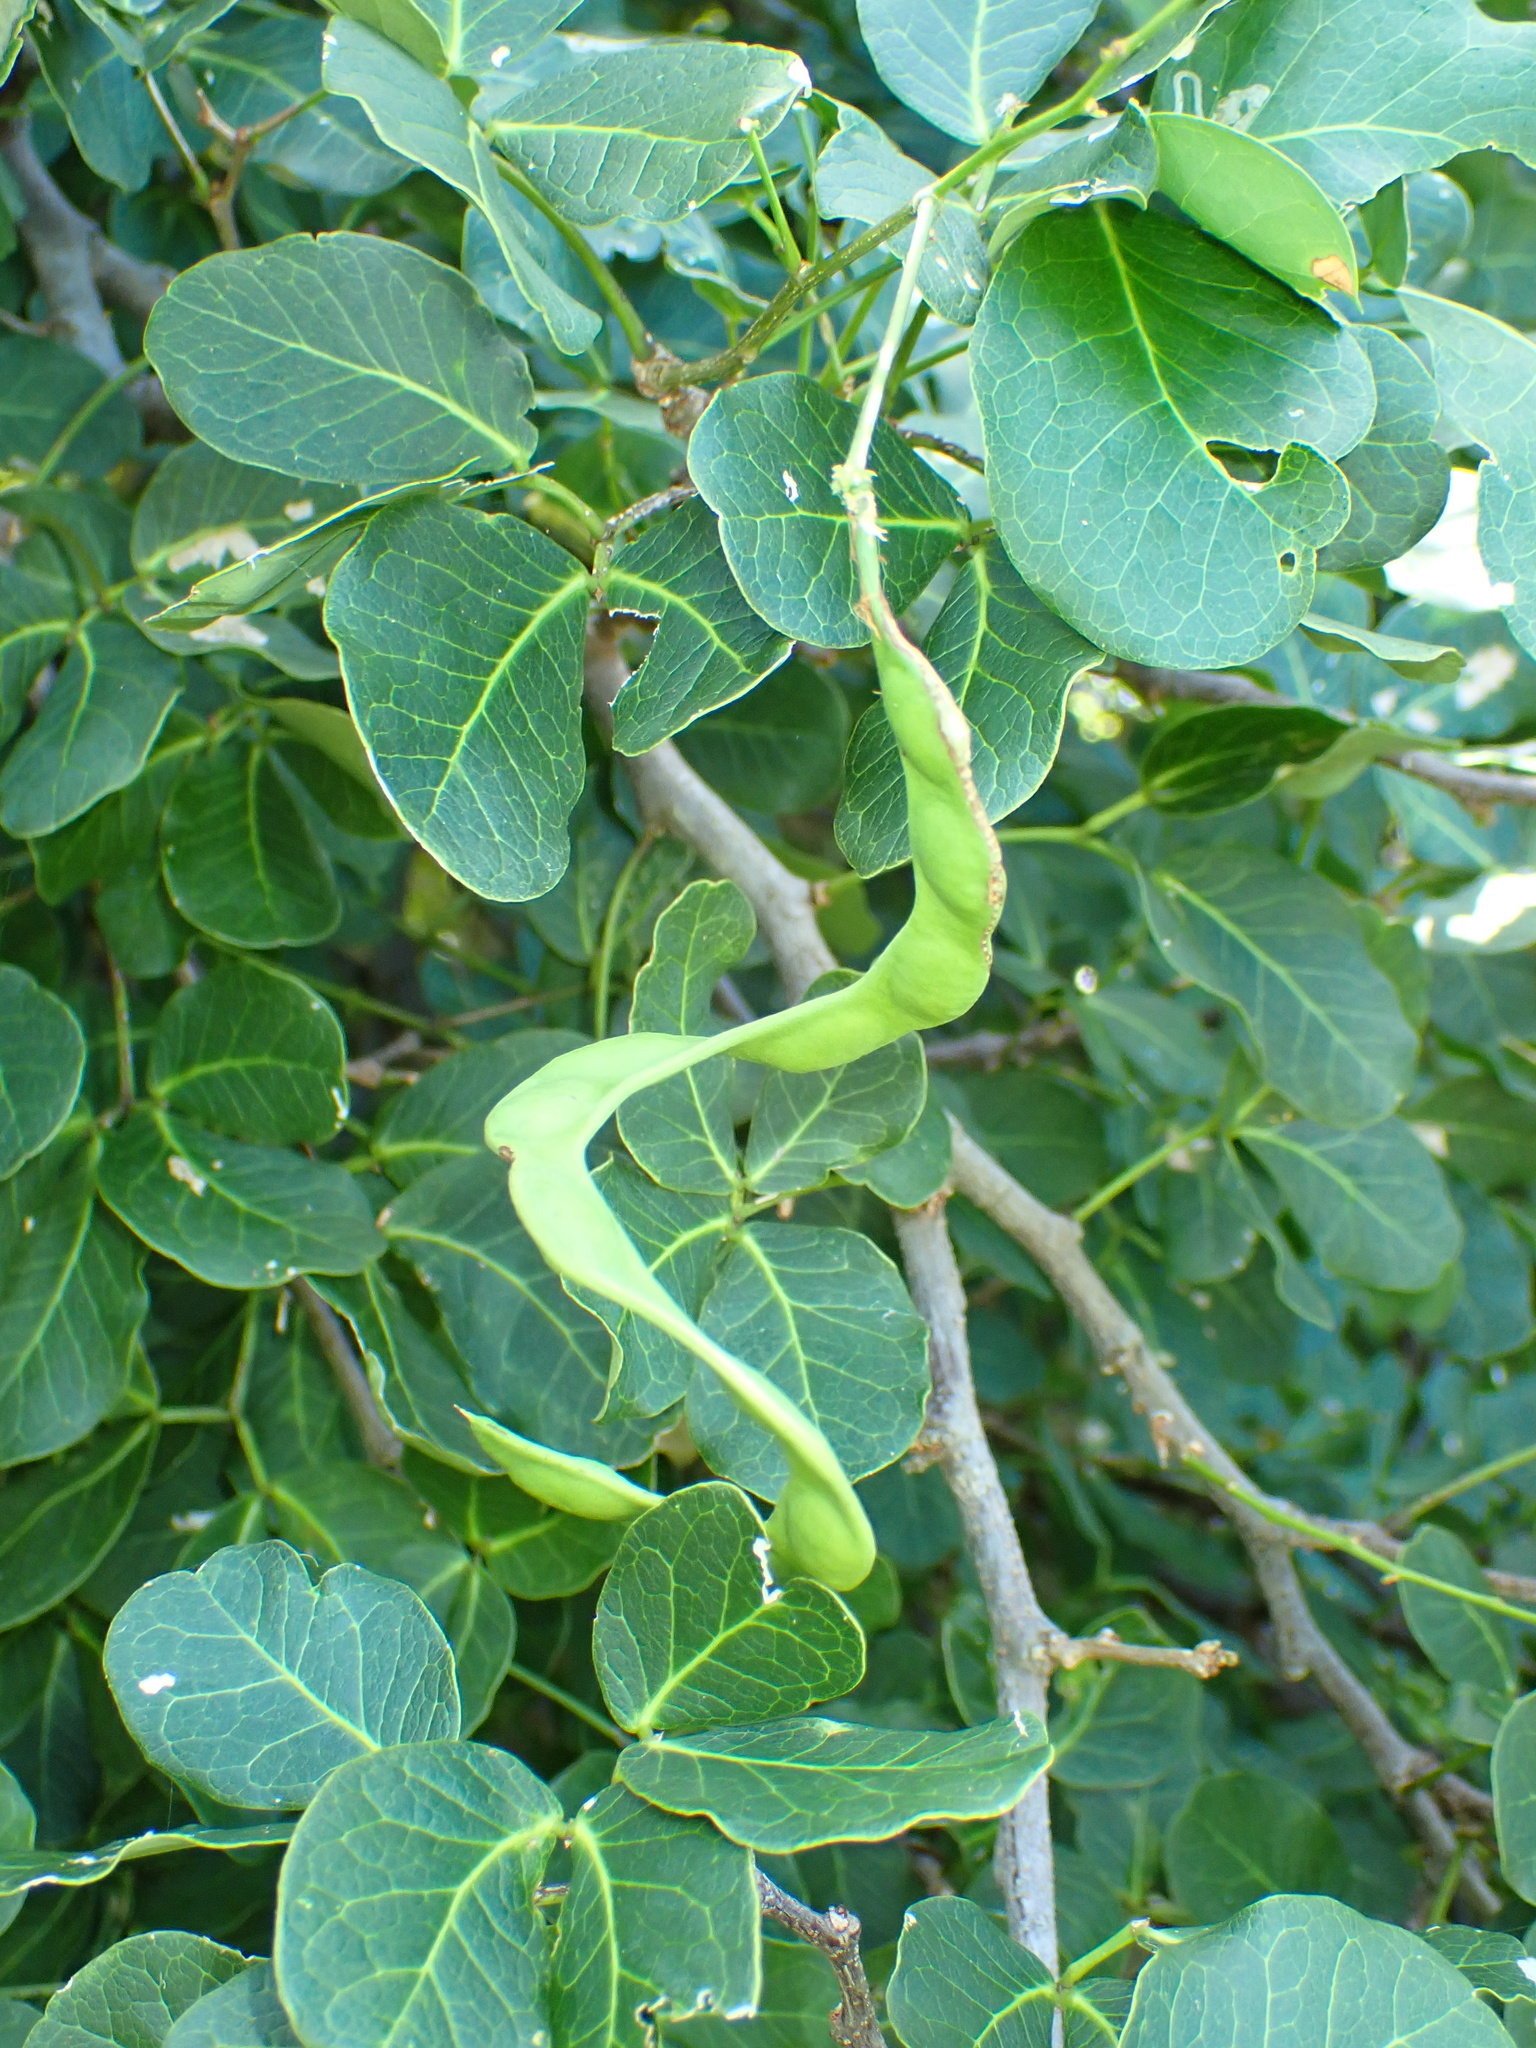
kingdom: Plantae
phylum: Tracheophyta
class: Magnoliopsida
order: Fabales
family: Fabaceae
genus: Pithecellobium
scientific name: Pithecellobium unguis-cati
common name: Cat's-claw
